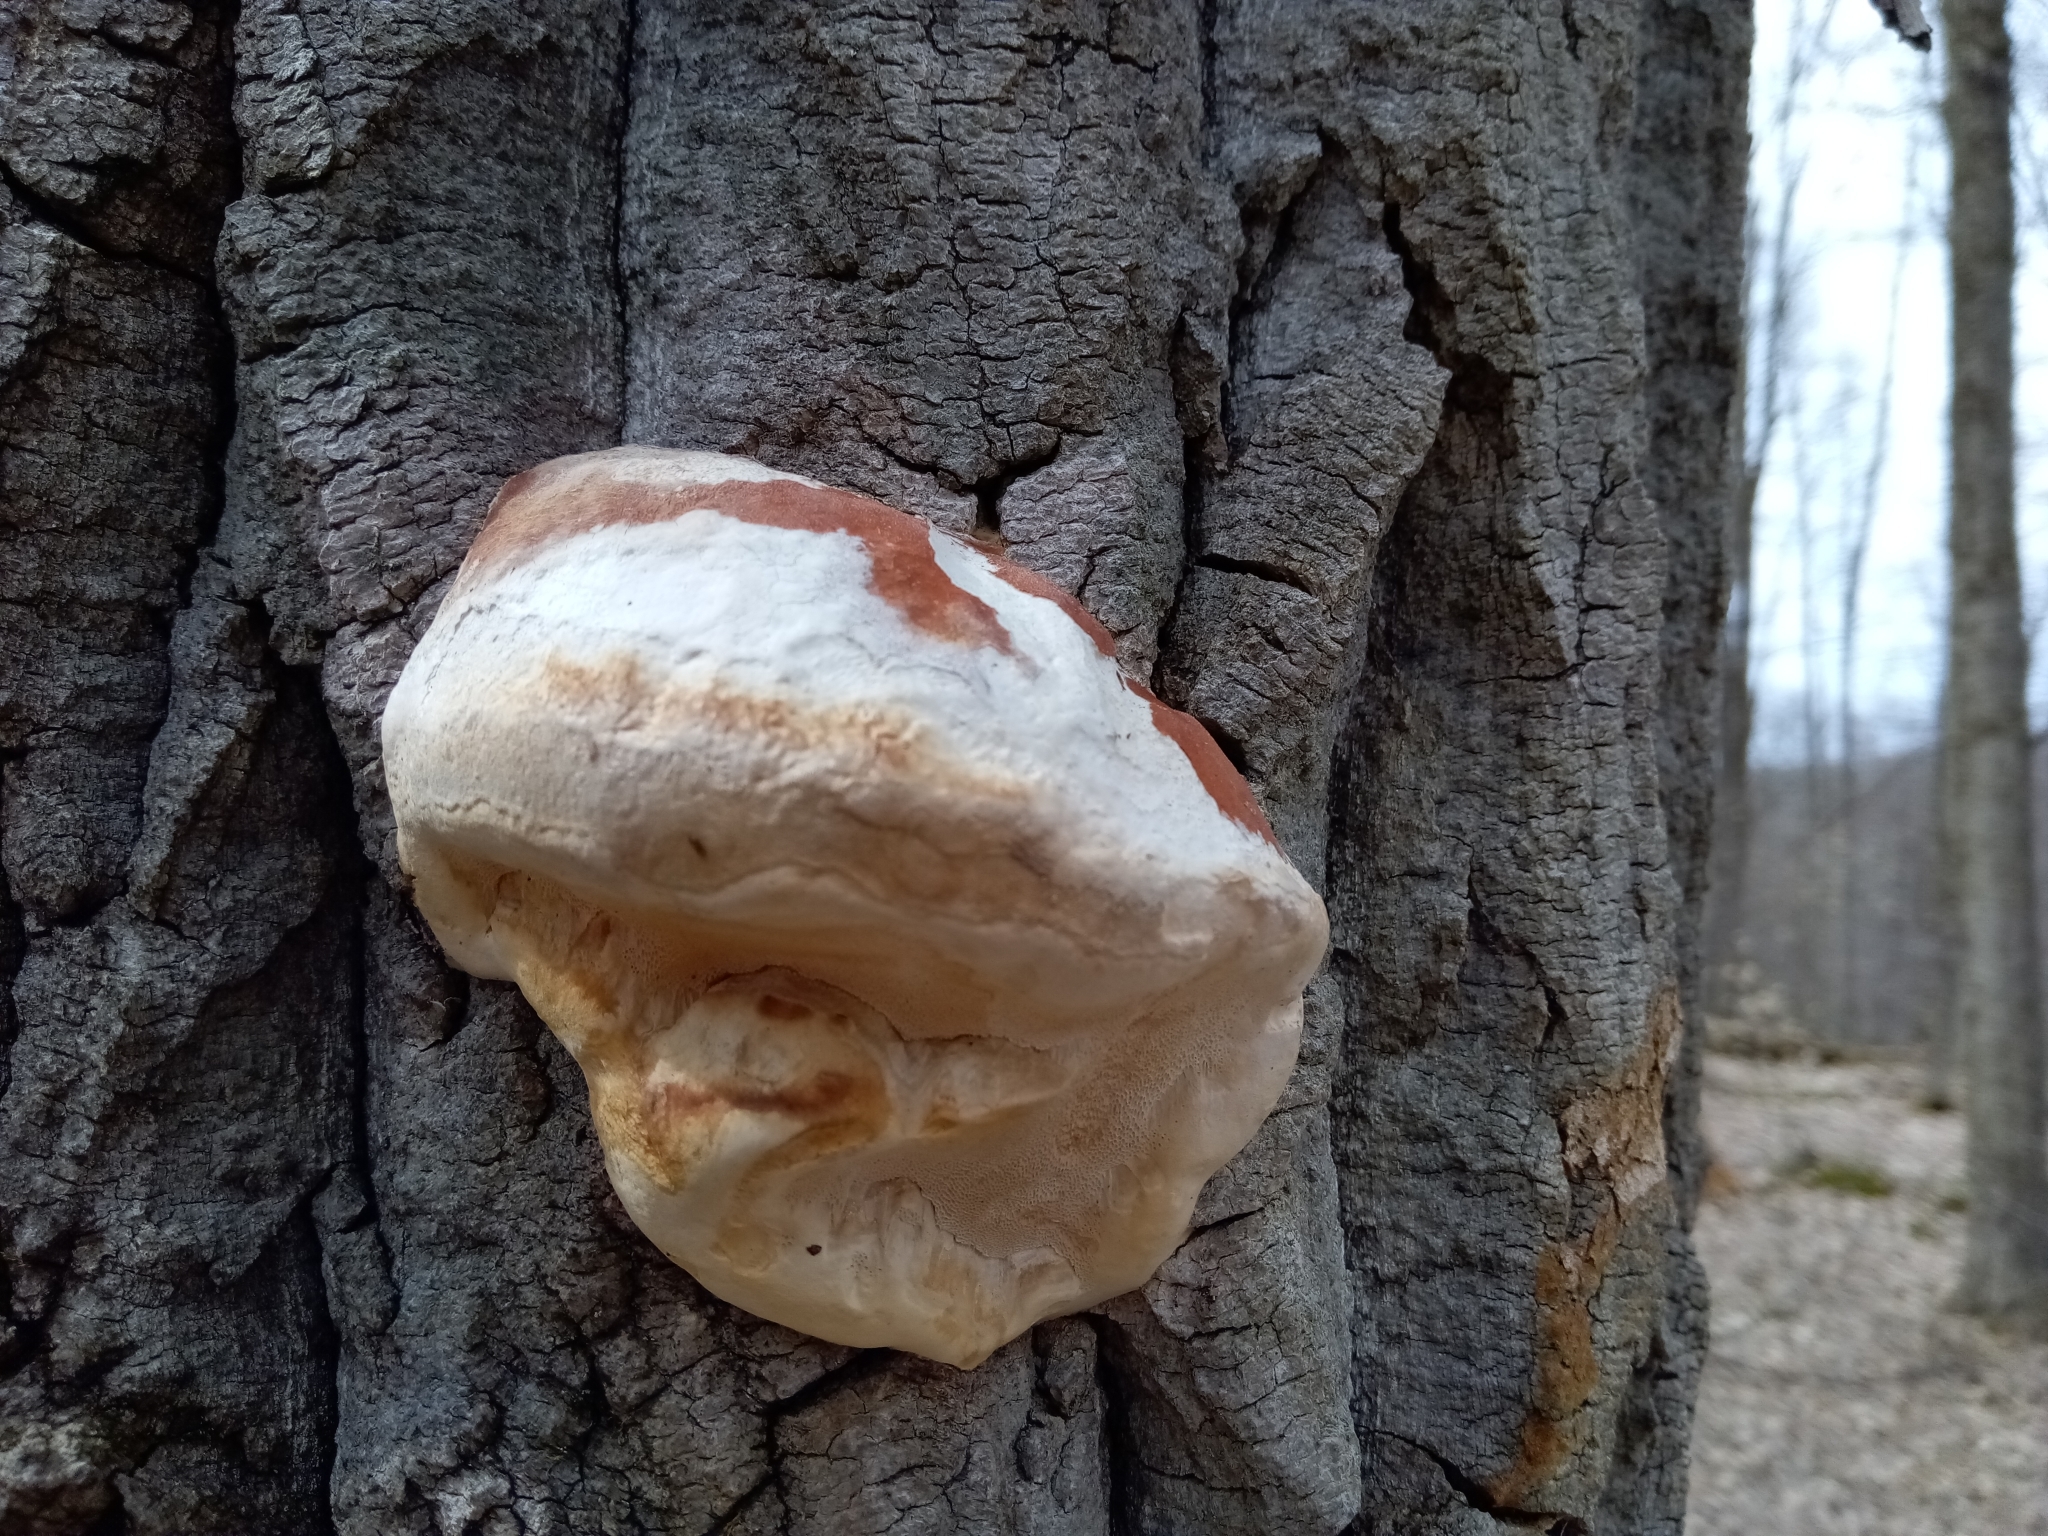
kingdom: Fungi
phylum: Basidiomycota
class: Agaricomycetes
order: Polyporales
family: Fomitopsidaceae
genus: Fomitopsis
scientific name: Fomitopsis mounceae
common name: Northern red belt
